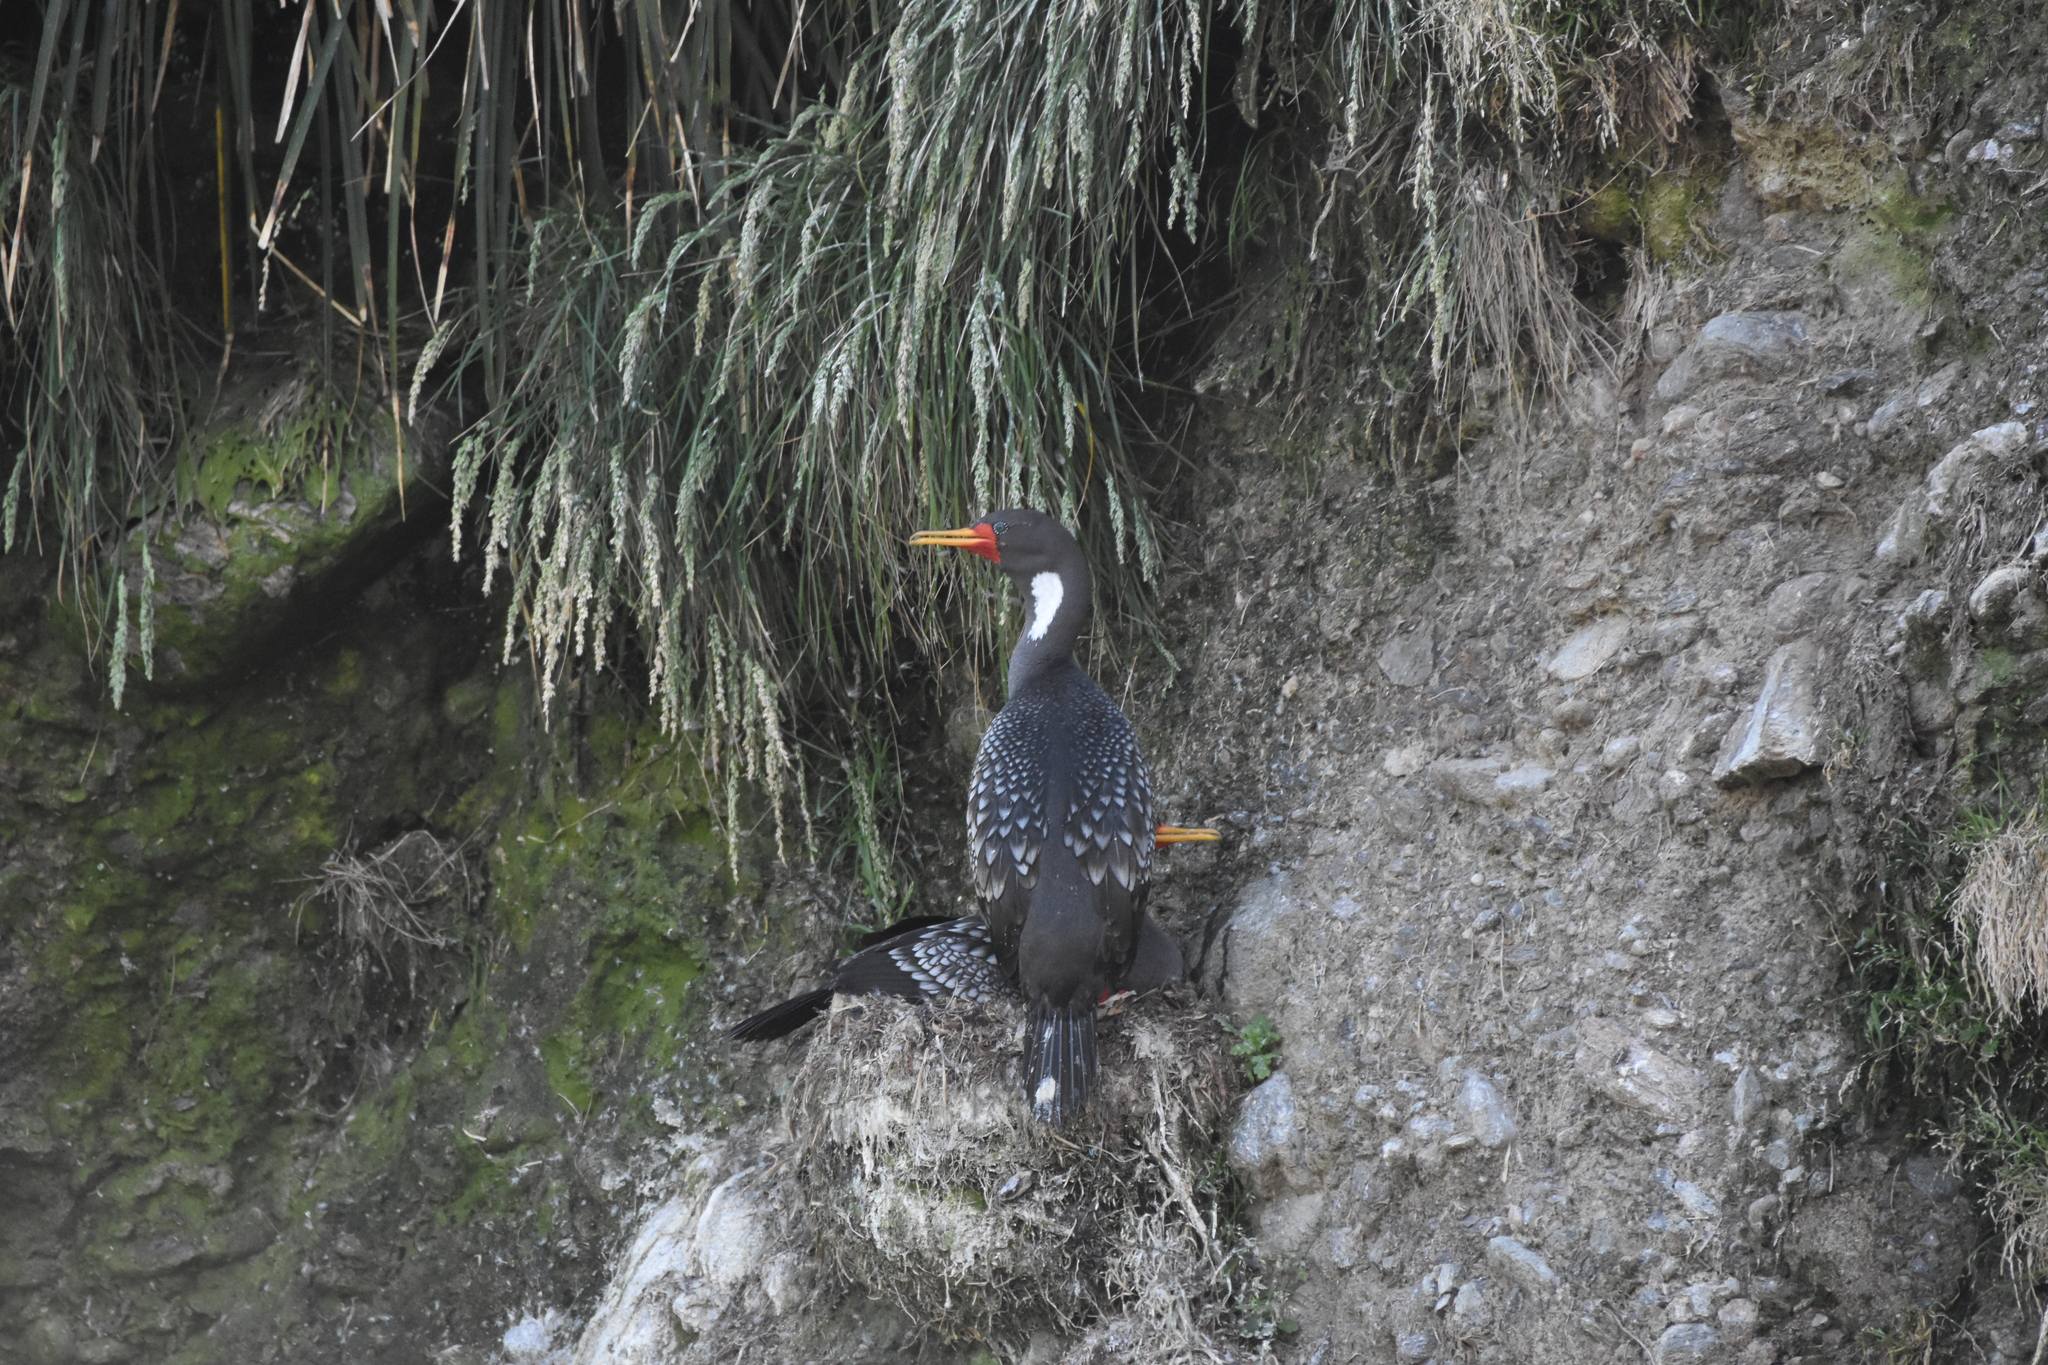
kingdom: Animalia
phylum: Chordata
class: Aves
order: Suliformes
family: Phalacrocoracidae
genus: Phalacrocorax
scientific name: Phalacrocorax gaimardi
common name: Red-legged cormorant
